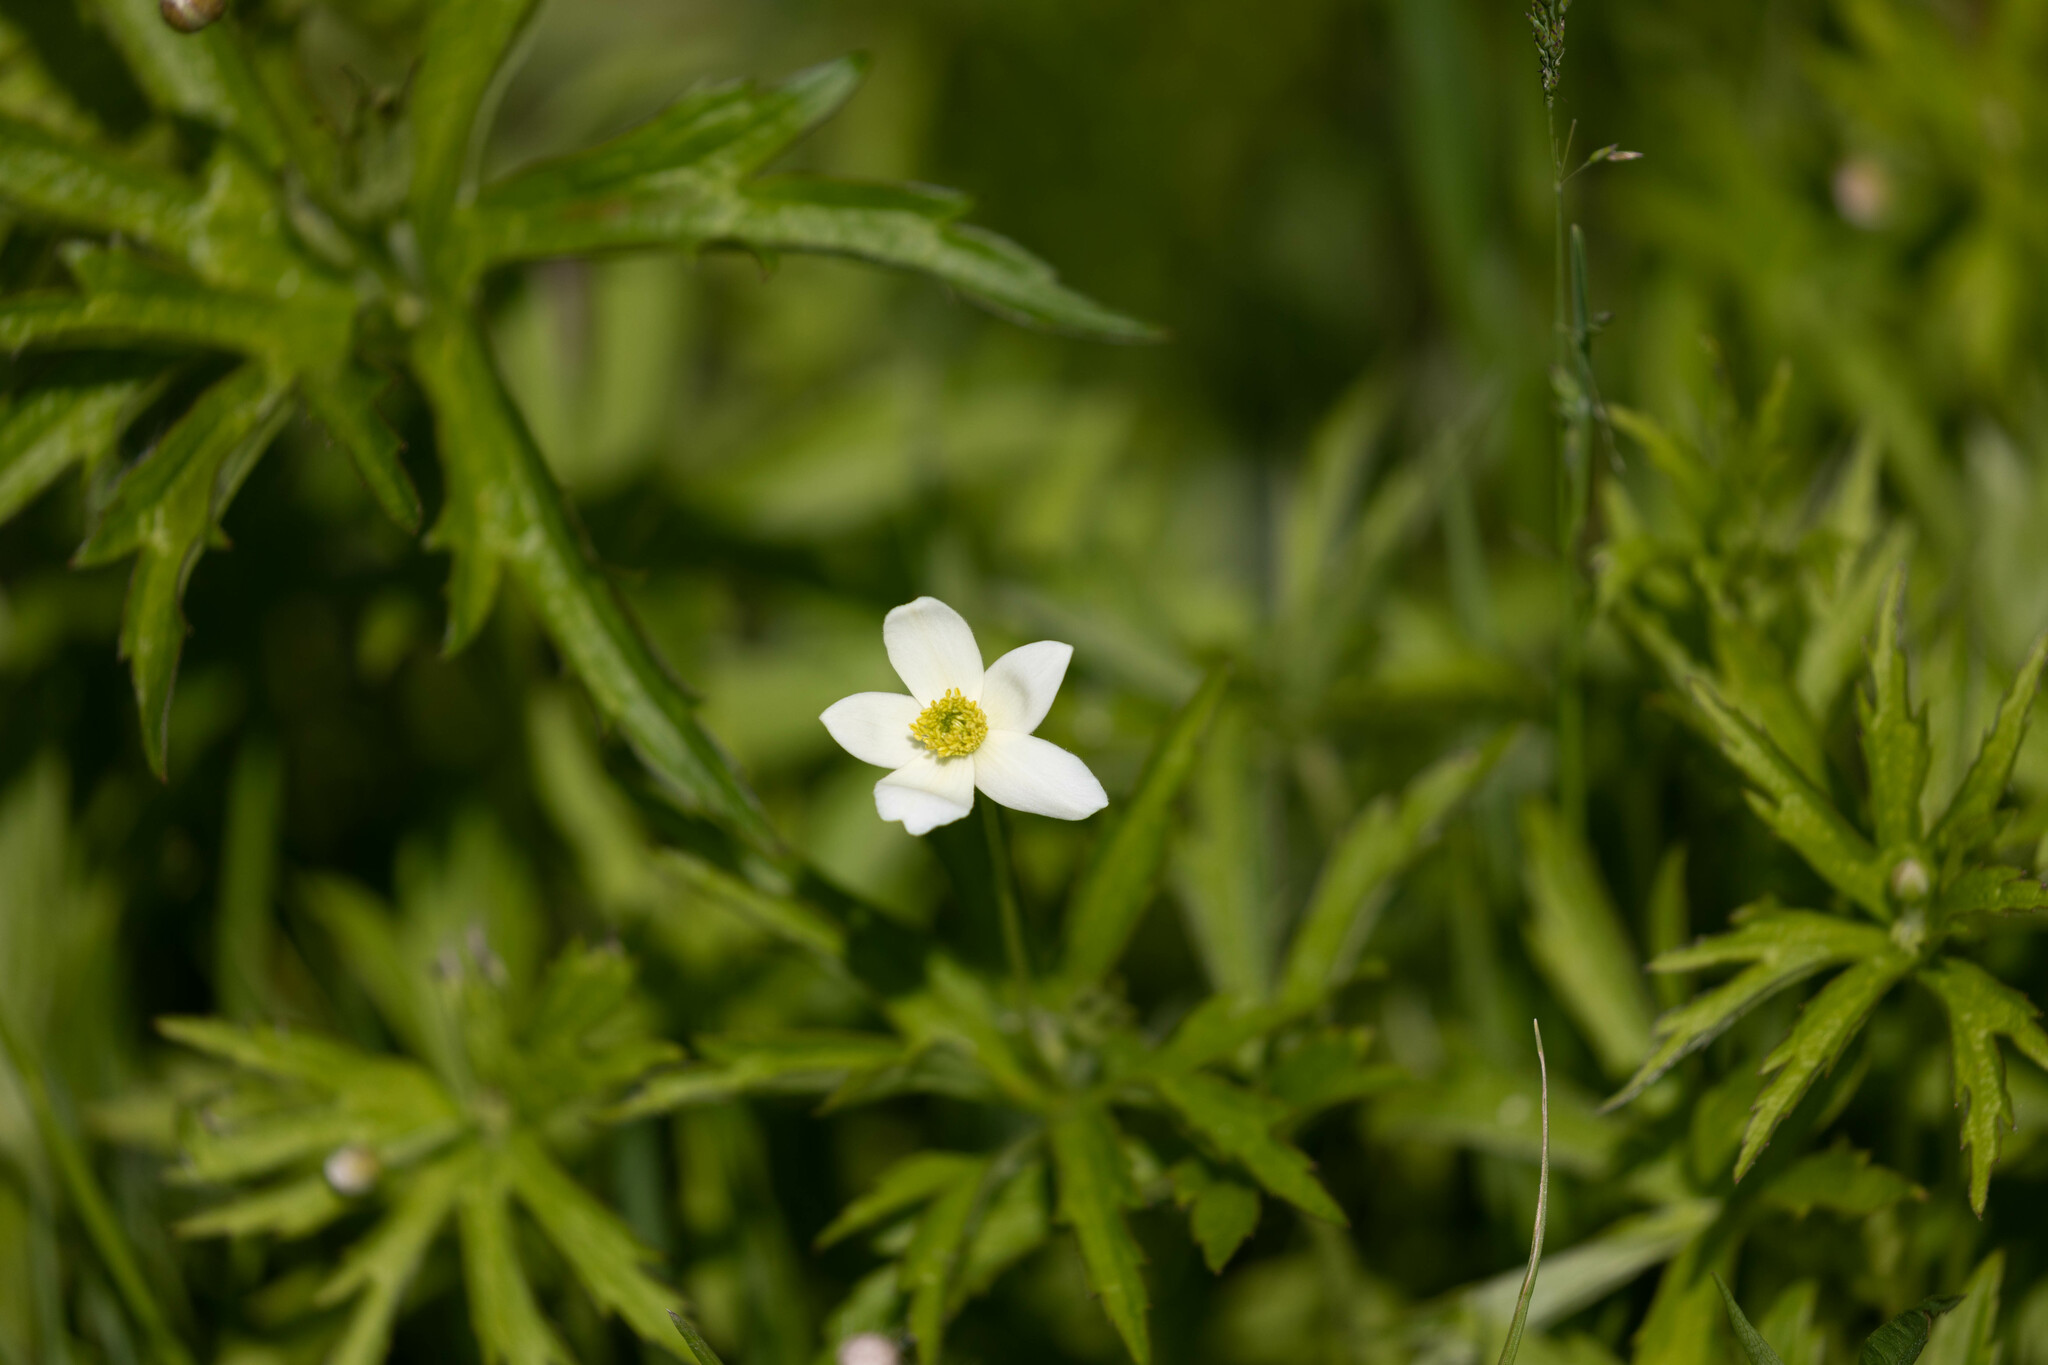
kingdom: Plantae
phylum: Tracheophyta
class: Magnoliopsida
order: Ranunculales
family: Ranunculaceae
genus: Anemonastrum
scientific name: Anemonastrum canadense
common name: Canada anemone
